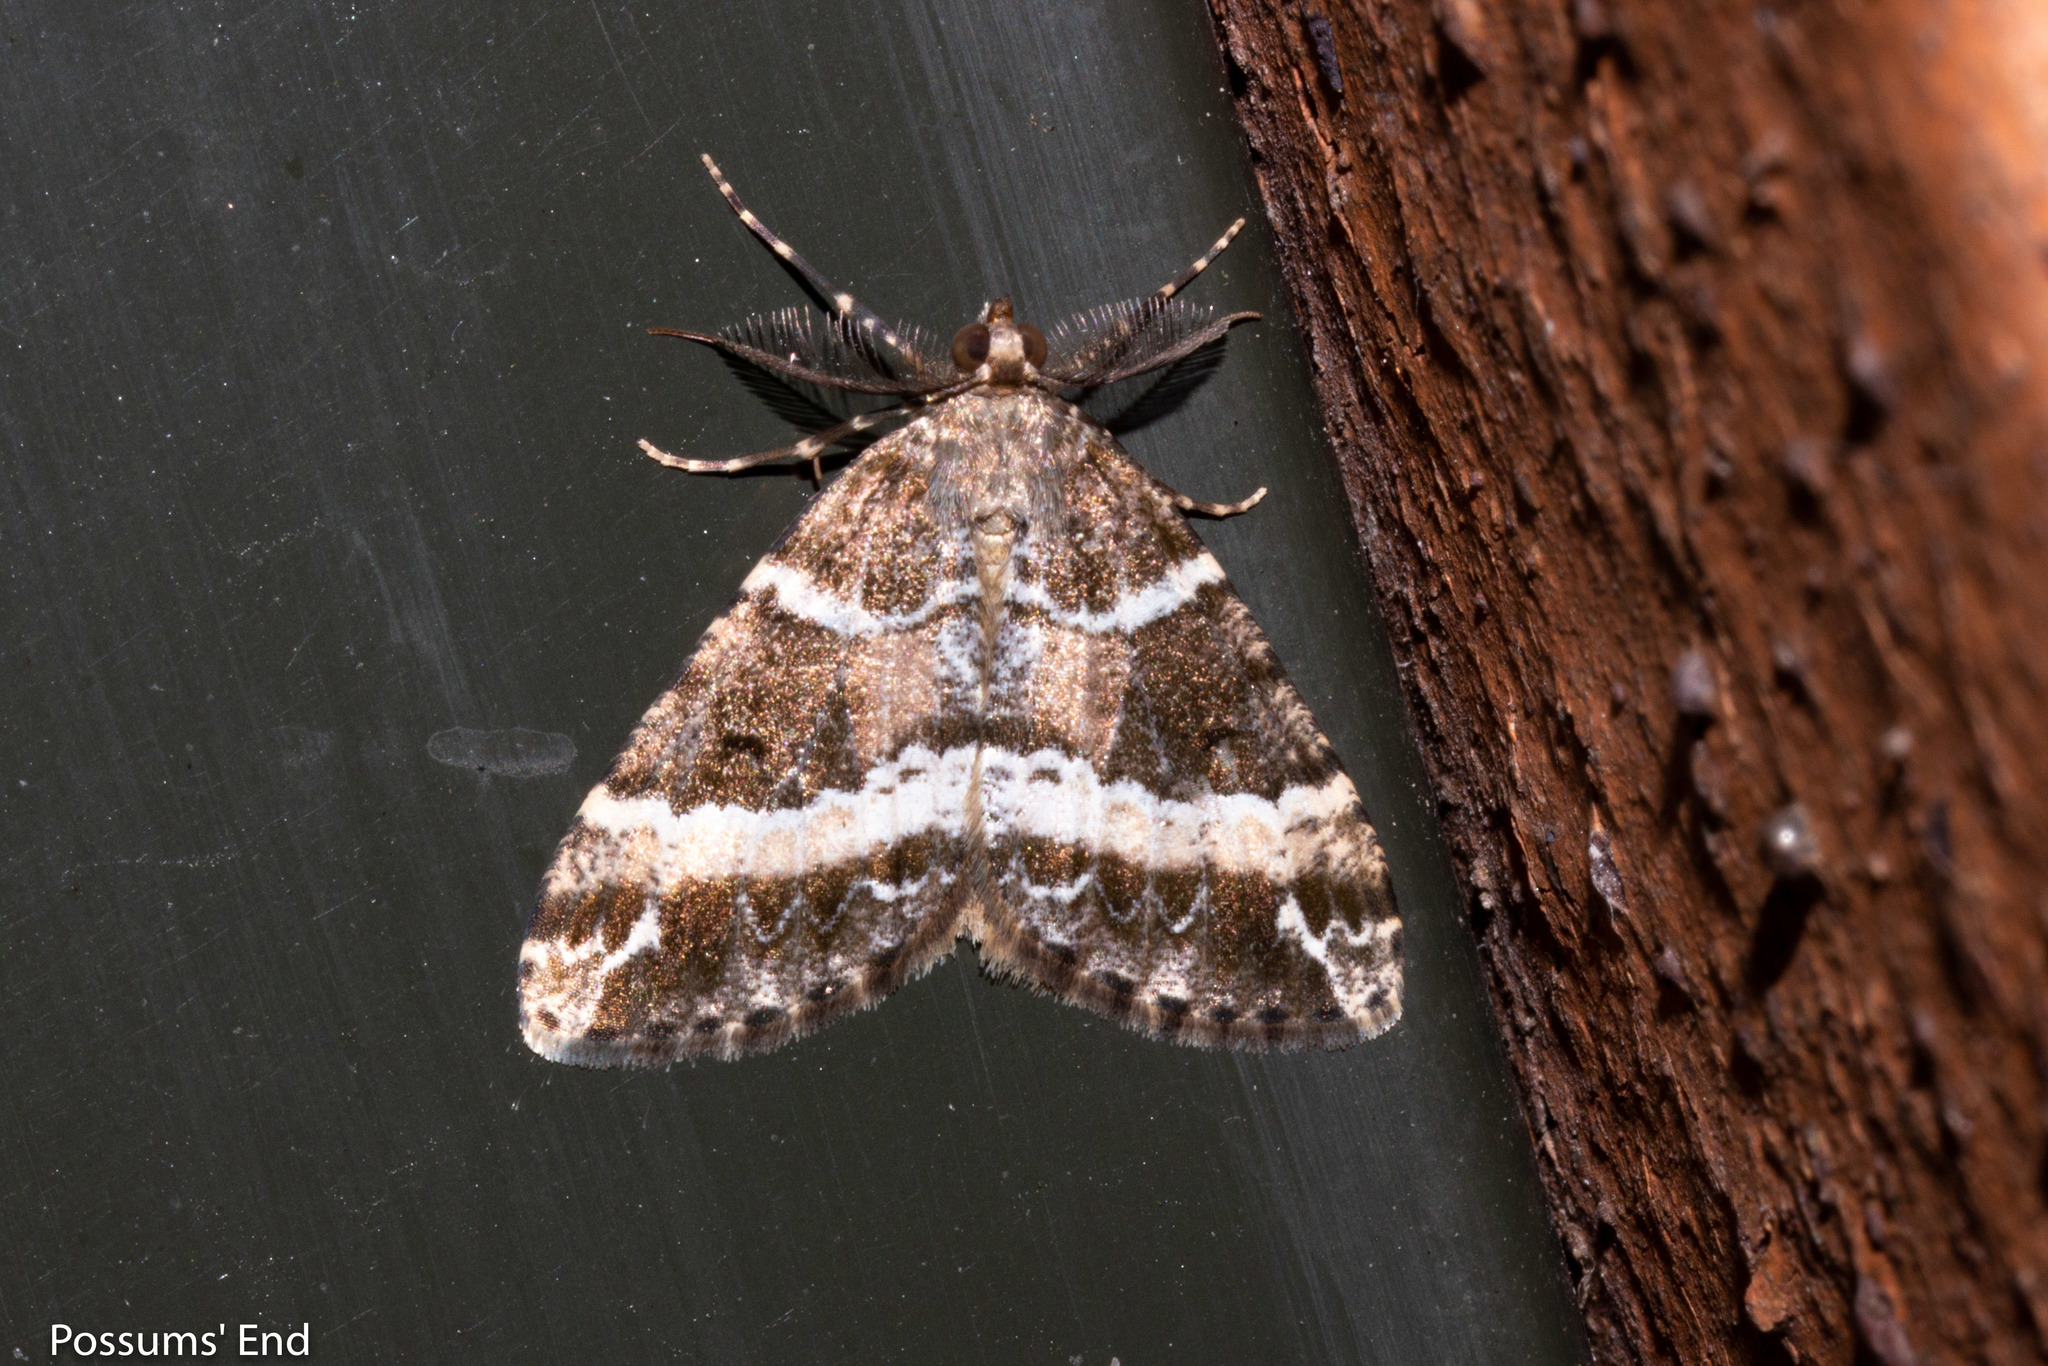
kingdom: Animalia
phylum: Arthropoda
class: Insecta
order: Lepidoptera
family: Geometridae
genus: Pseudocoremia
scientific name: Pseudocoremia
